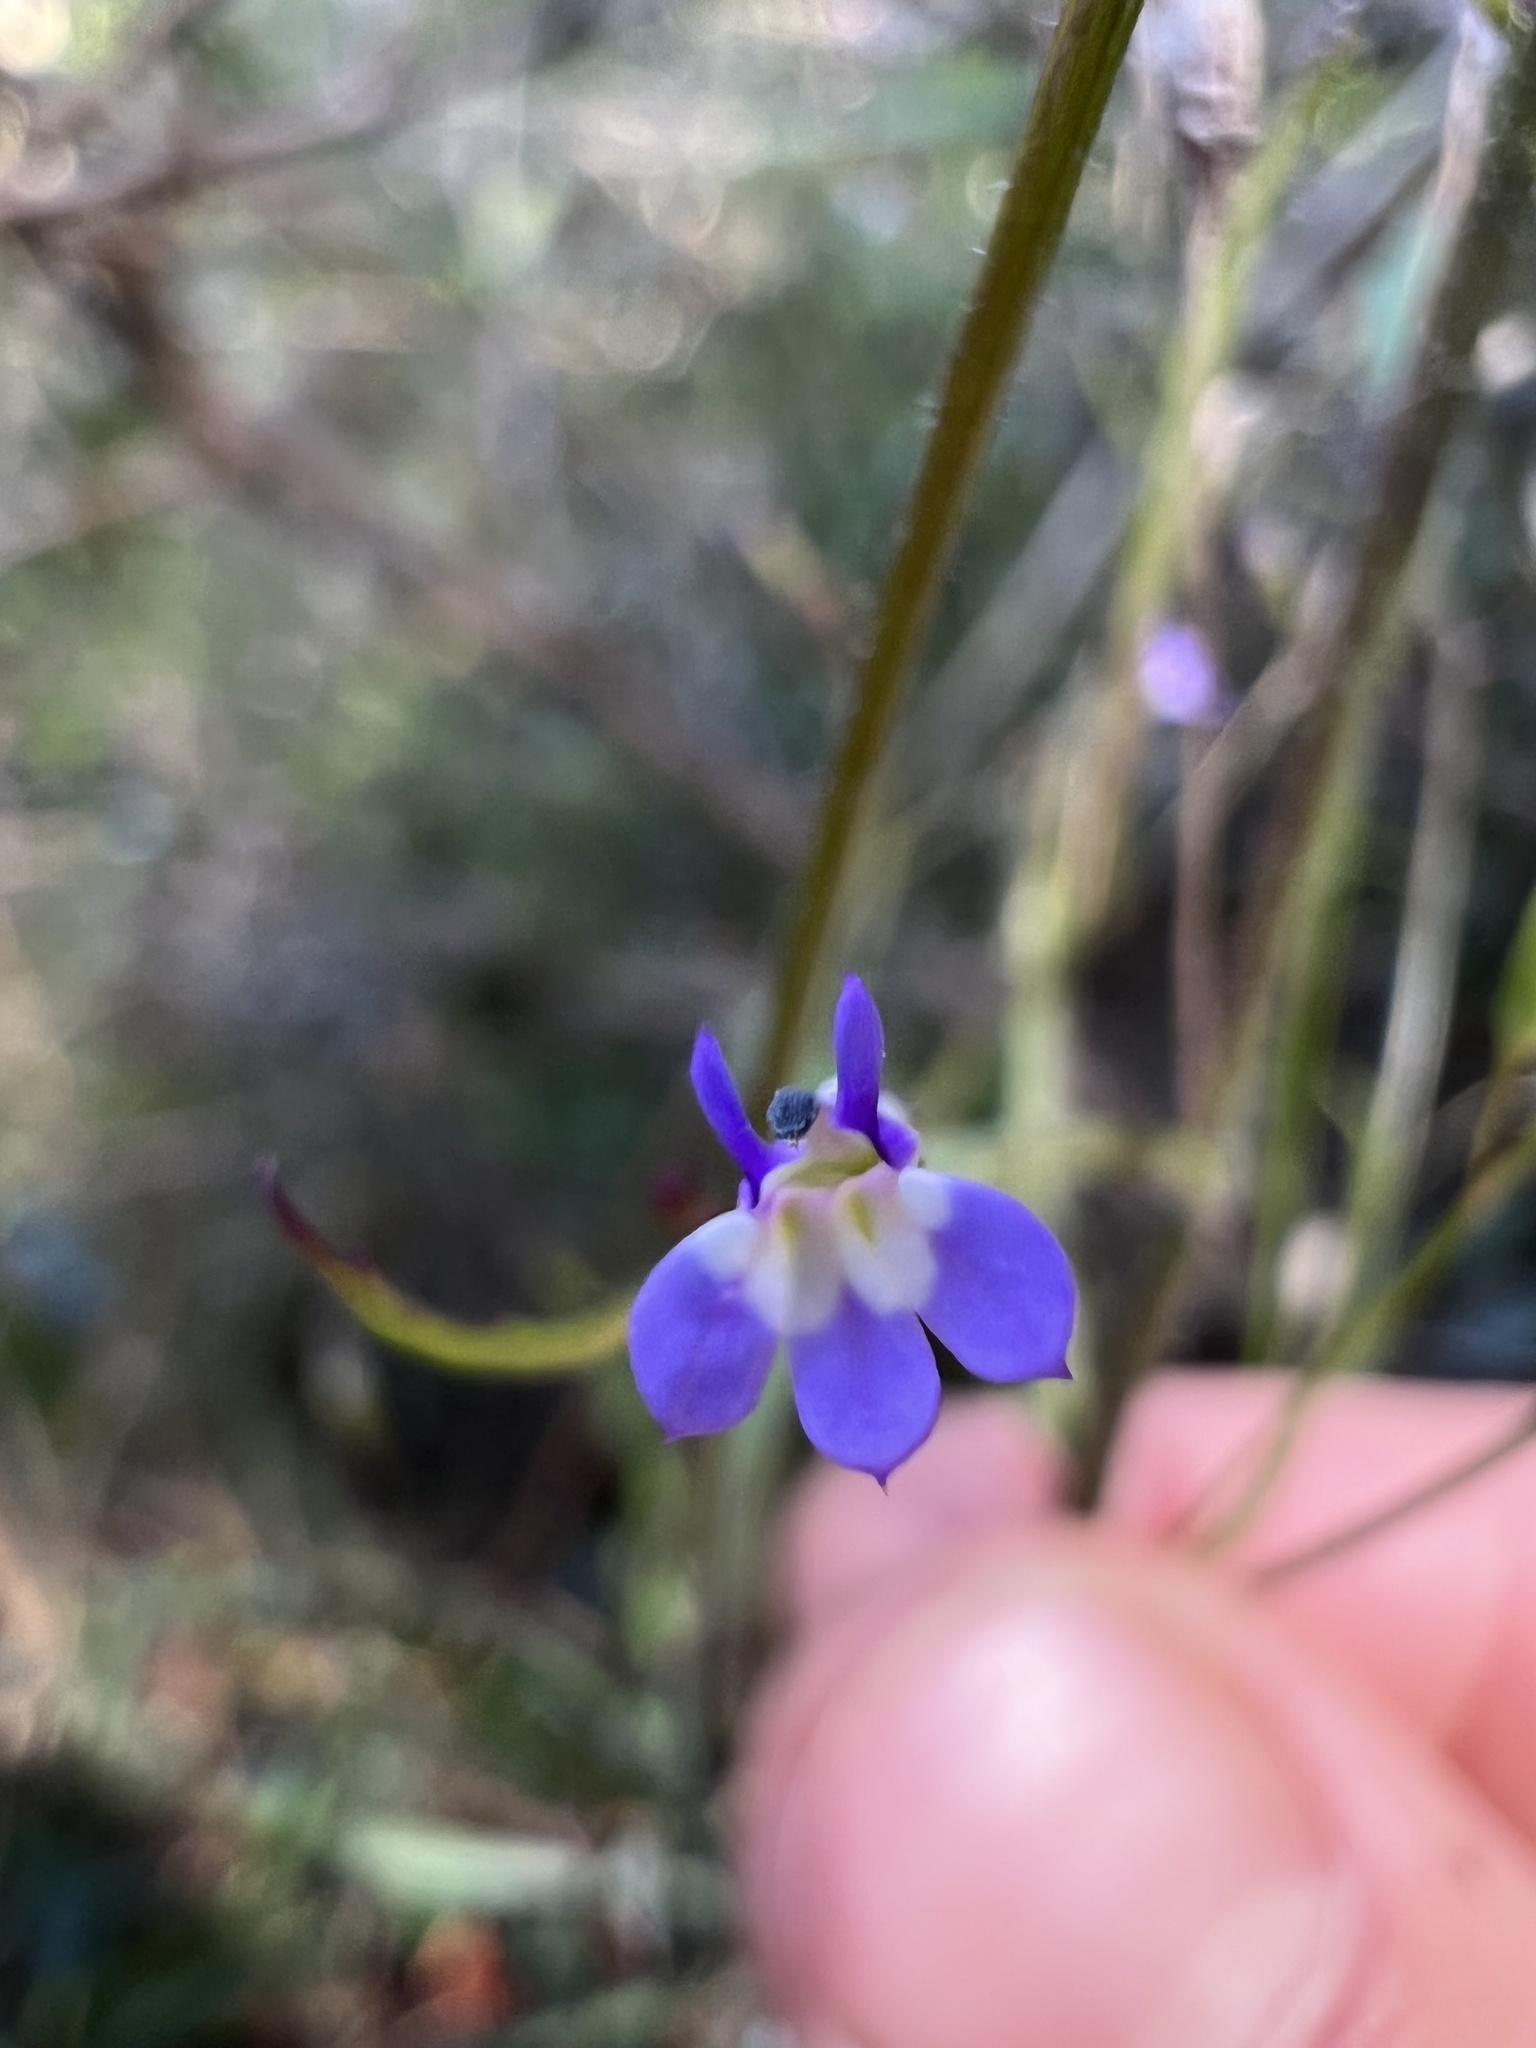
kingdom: Plantae
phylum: Tracheophyta
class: Magnoliopsida
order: Asterales
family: Campanulaceae
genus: Diastatea
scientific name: Diastatea micrantha
